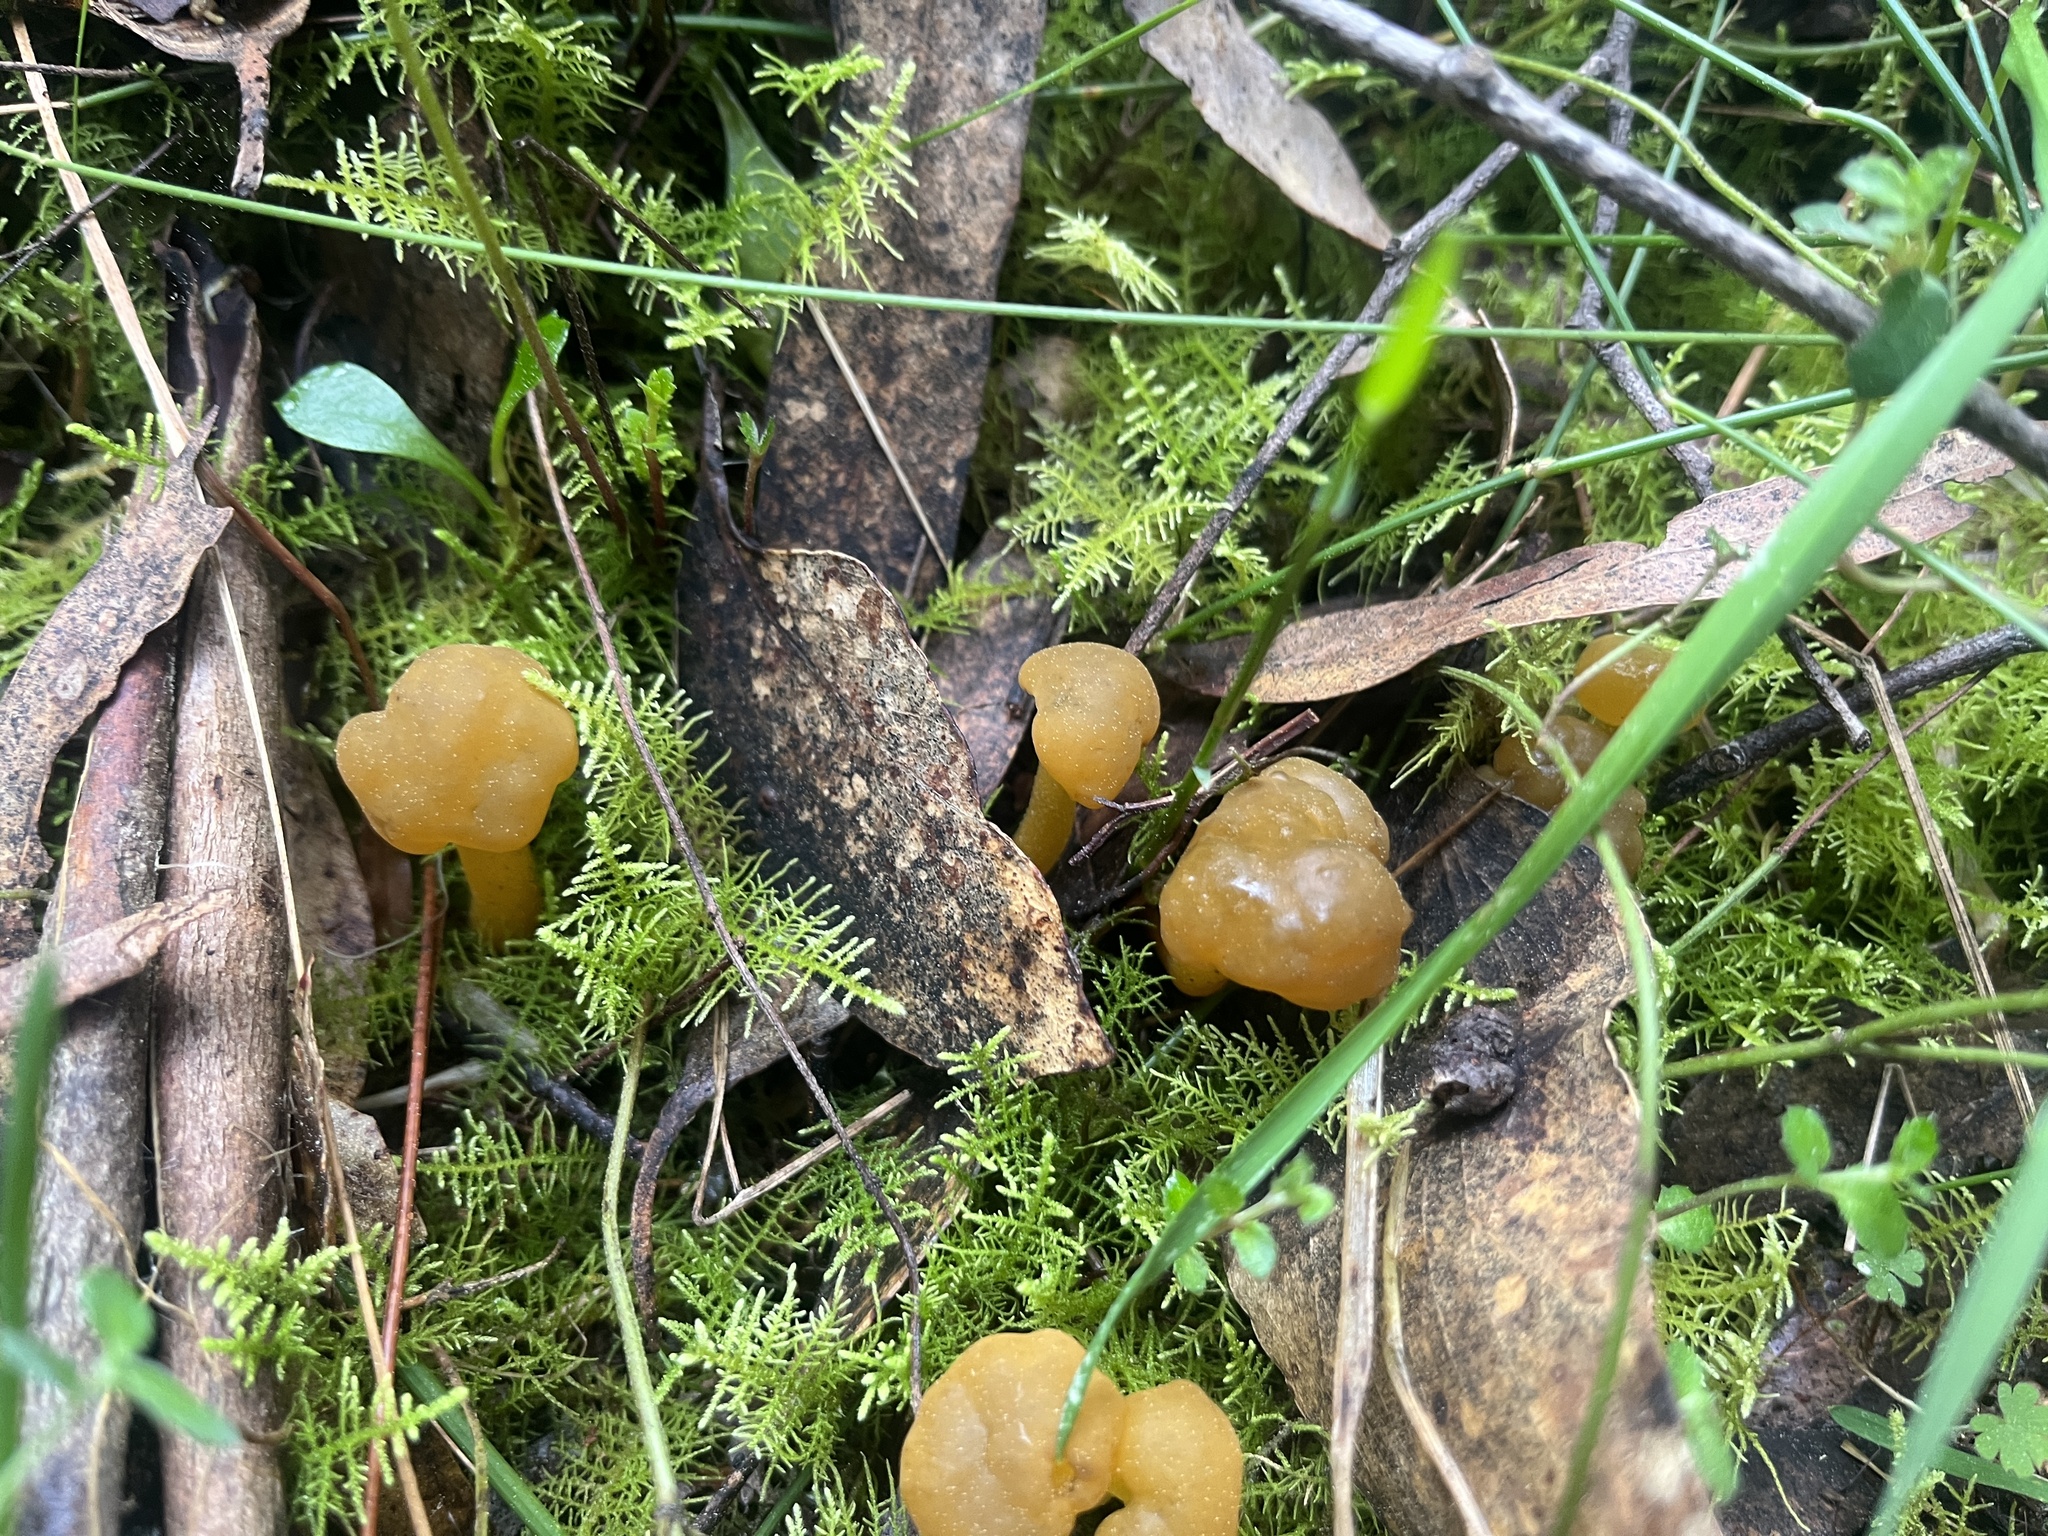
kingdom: Fungi
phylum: Ascomycota
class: Leotiomycetes
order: Leotiales
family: Leotiaceae
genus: Leotia
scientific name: Leotia lubrica
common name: Jellybaby
